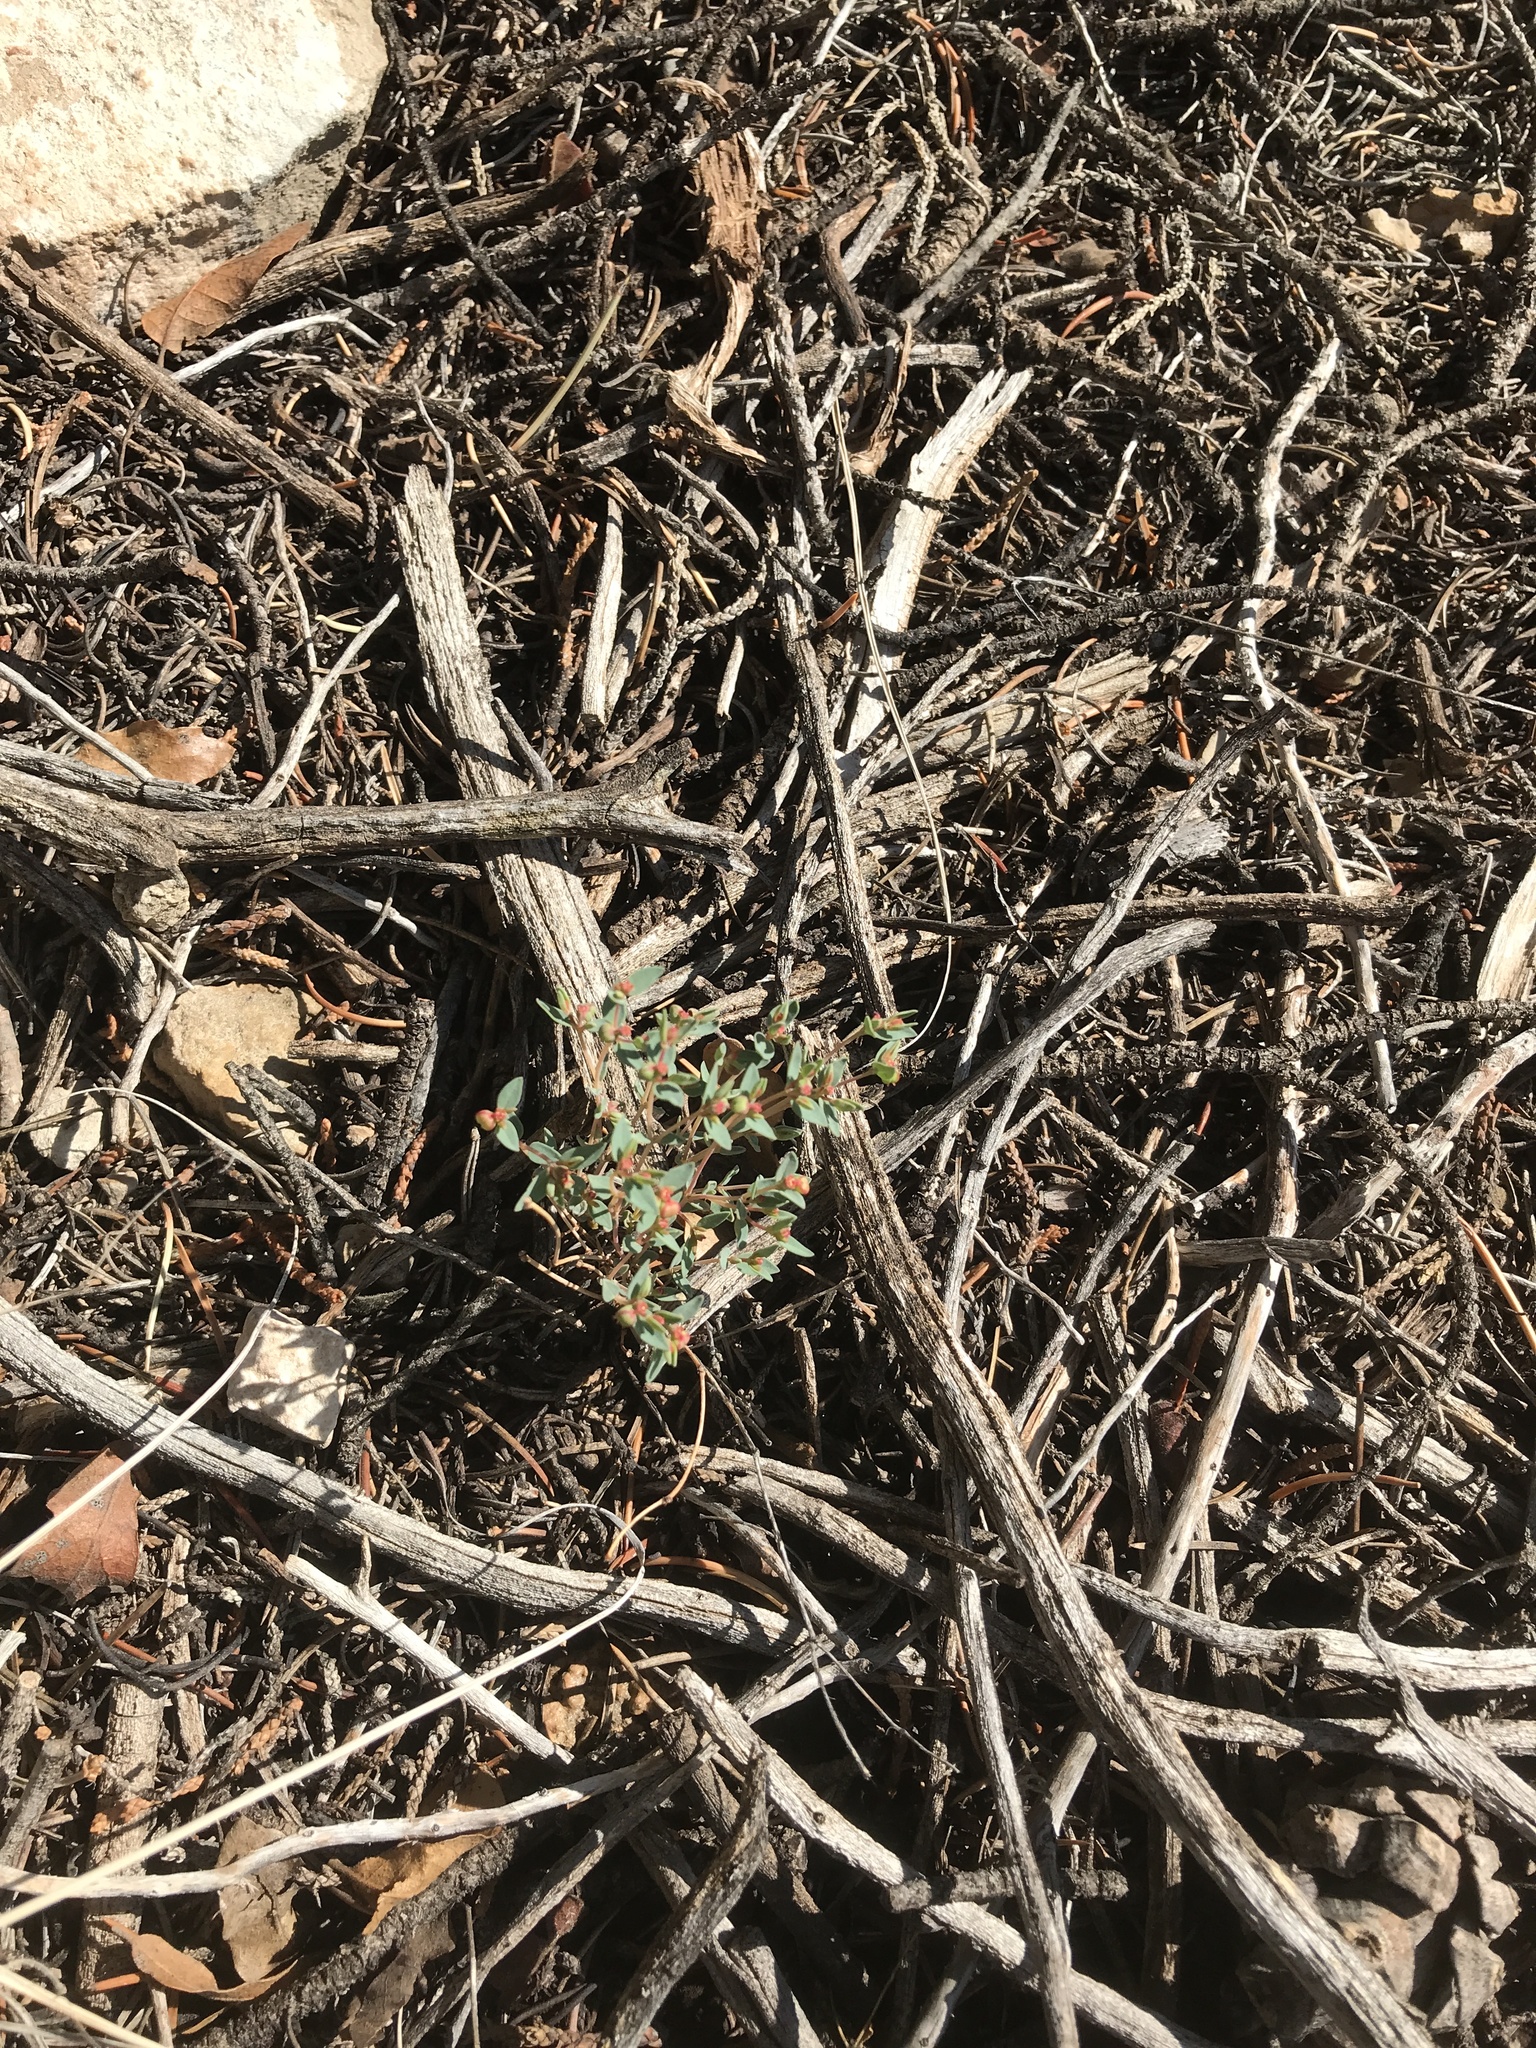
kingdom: Plantae
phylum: Tracheophyta
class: Magnoliopsida
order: Malpighiales
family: Euphorbiaceae
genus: Euphorbia
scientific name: Euphorbia chaetocalyx
